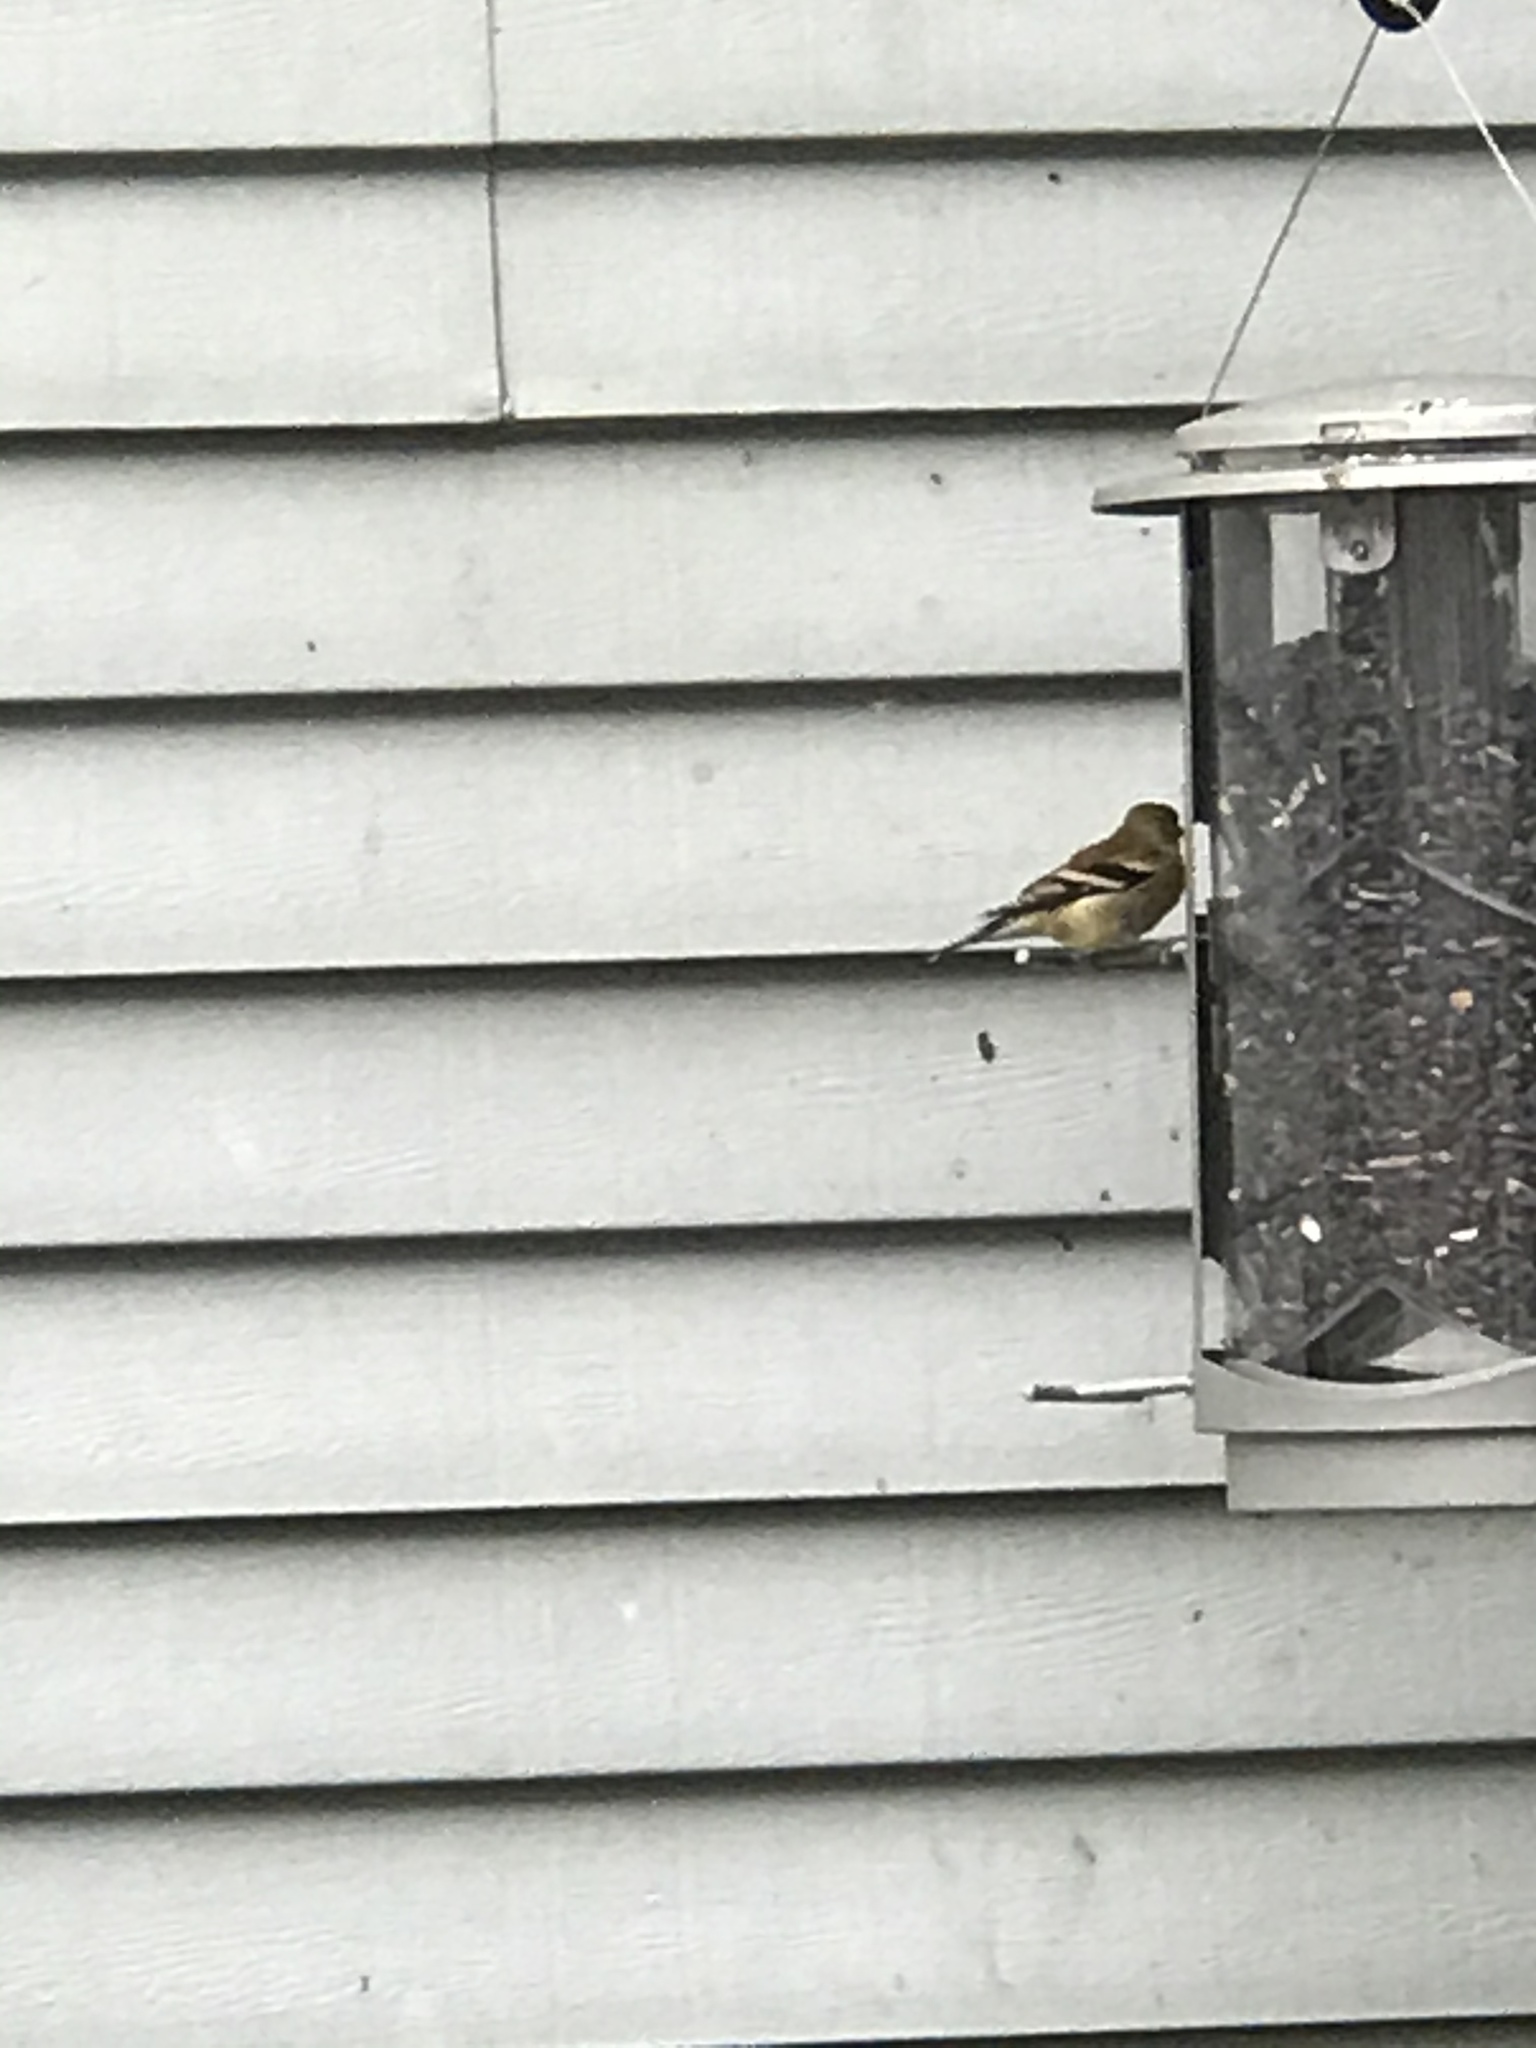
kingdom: Animalia
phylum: Chordata
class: Aves
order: Passeriformes
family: Fringillidae
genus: Spinus
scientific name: Spinus tristis
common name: American goldfinch
